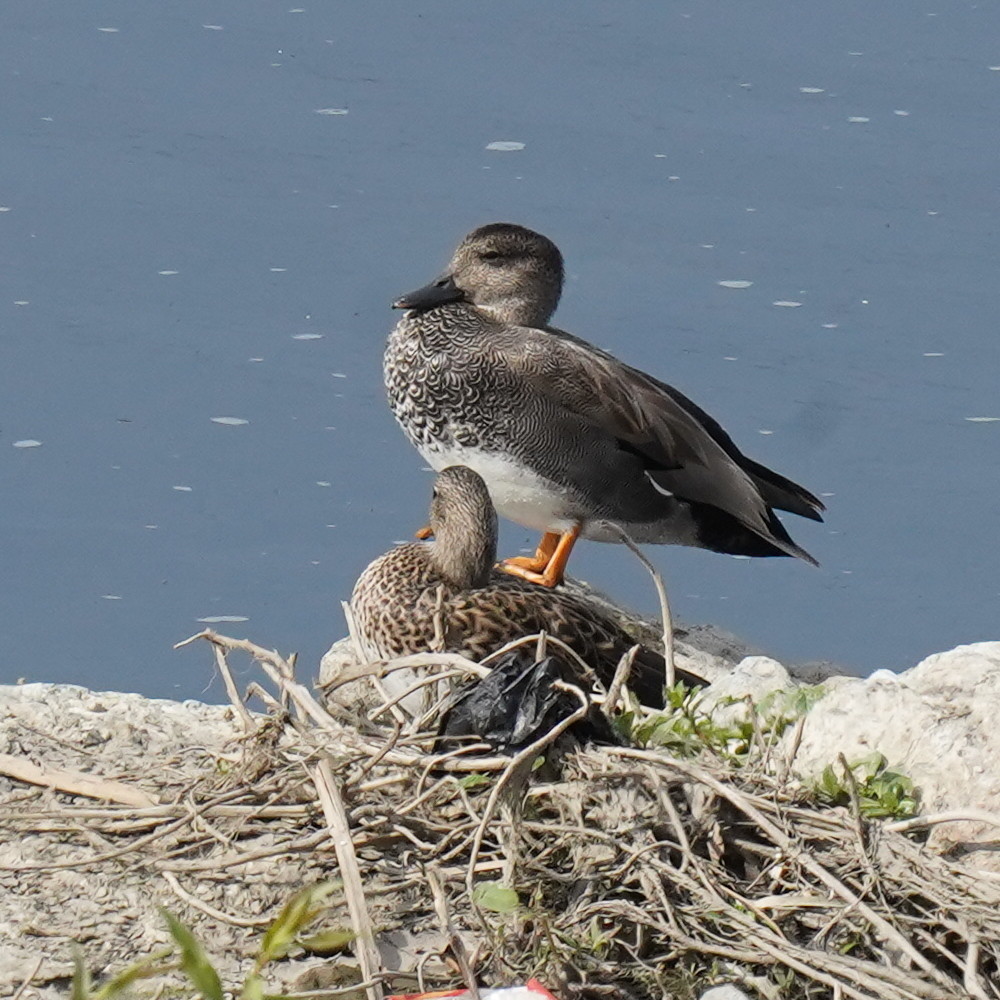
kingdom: Animalia
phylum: Chordata
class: Aves
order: Anseriformes
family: Anatidae
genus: Mareca
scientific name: Mareca strepera
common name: Gadwall
